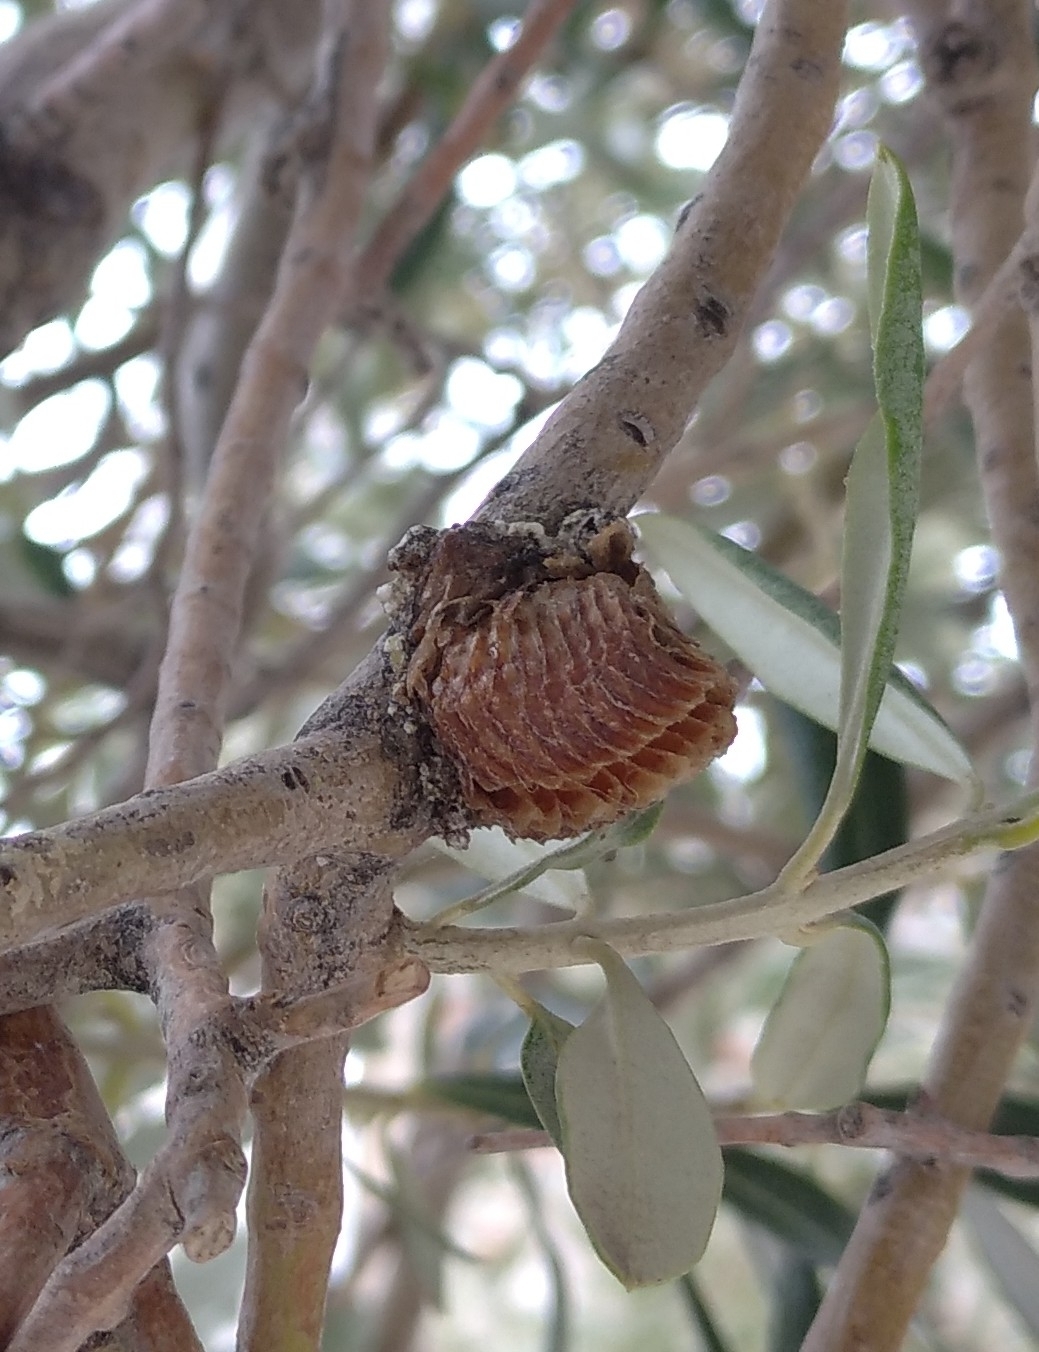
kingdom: Animalia
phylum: Arthropoda
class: Insecta
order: Mantodea
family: Mantidae
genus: Hierodula
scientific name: Hierodula transcaucasica
